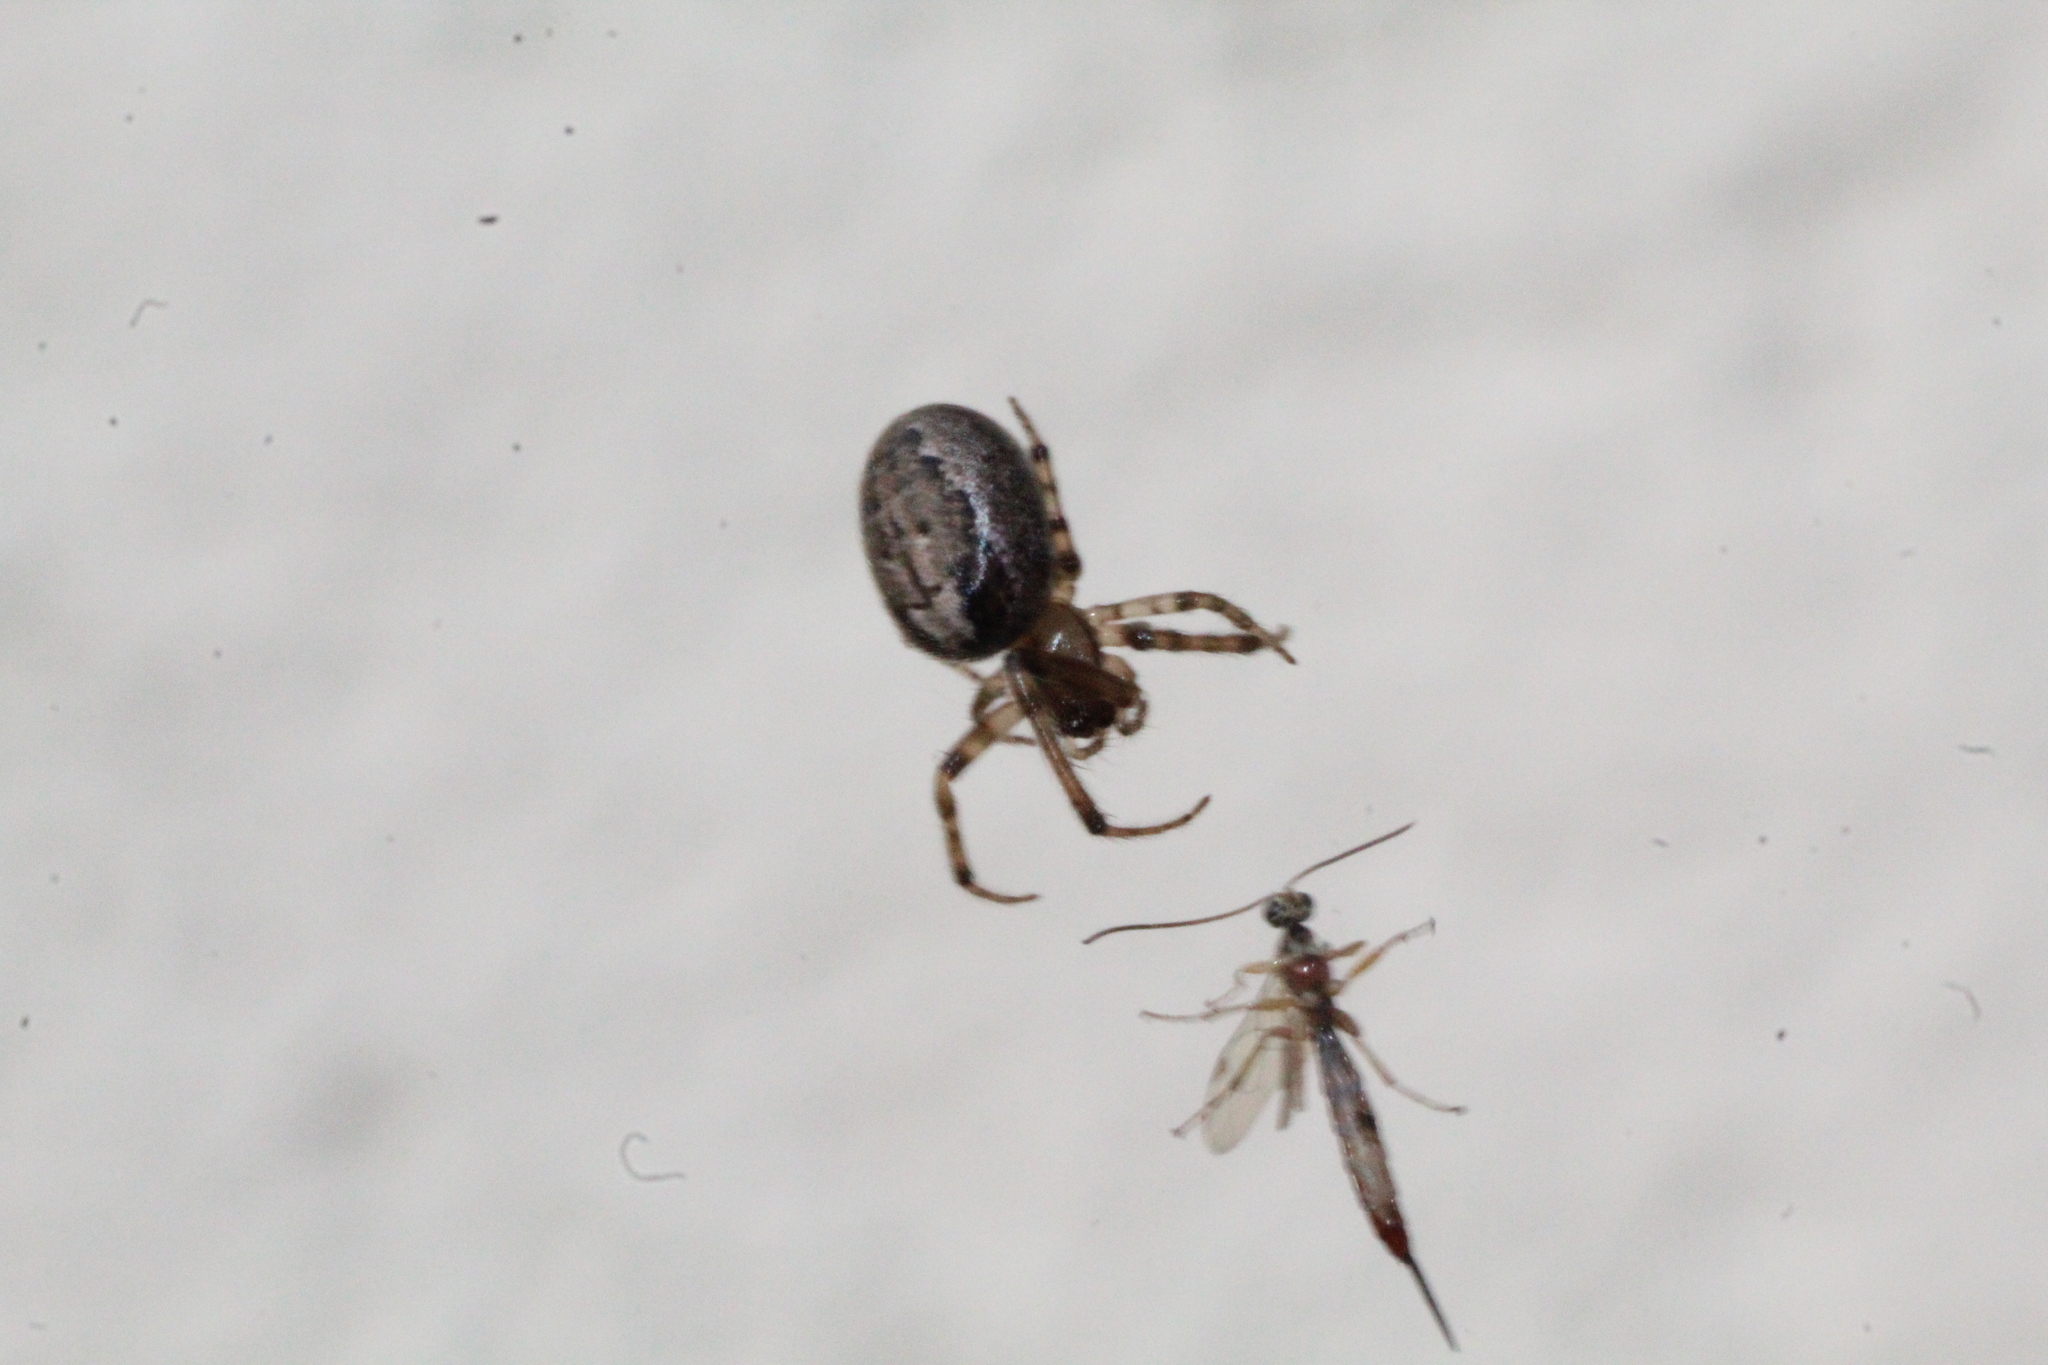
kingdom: Animalia
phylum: Arthropoda
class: Arachnida
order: Araneae
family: Araneidae
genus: Zygiella
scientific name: Zygiella x-notata
